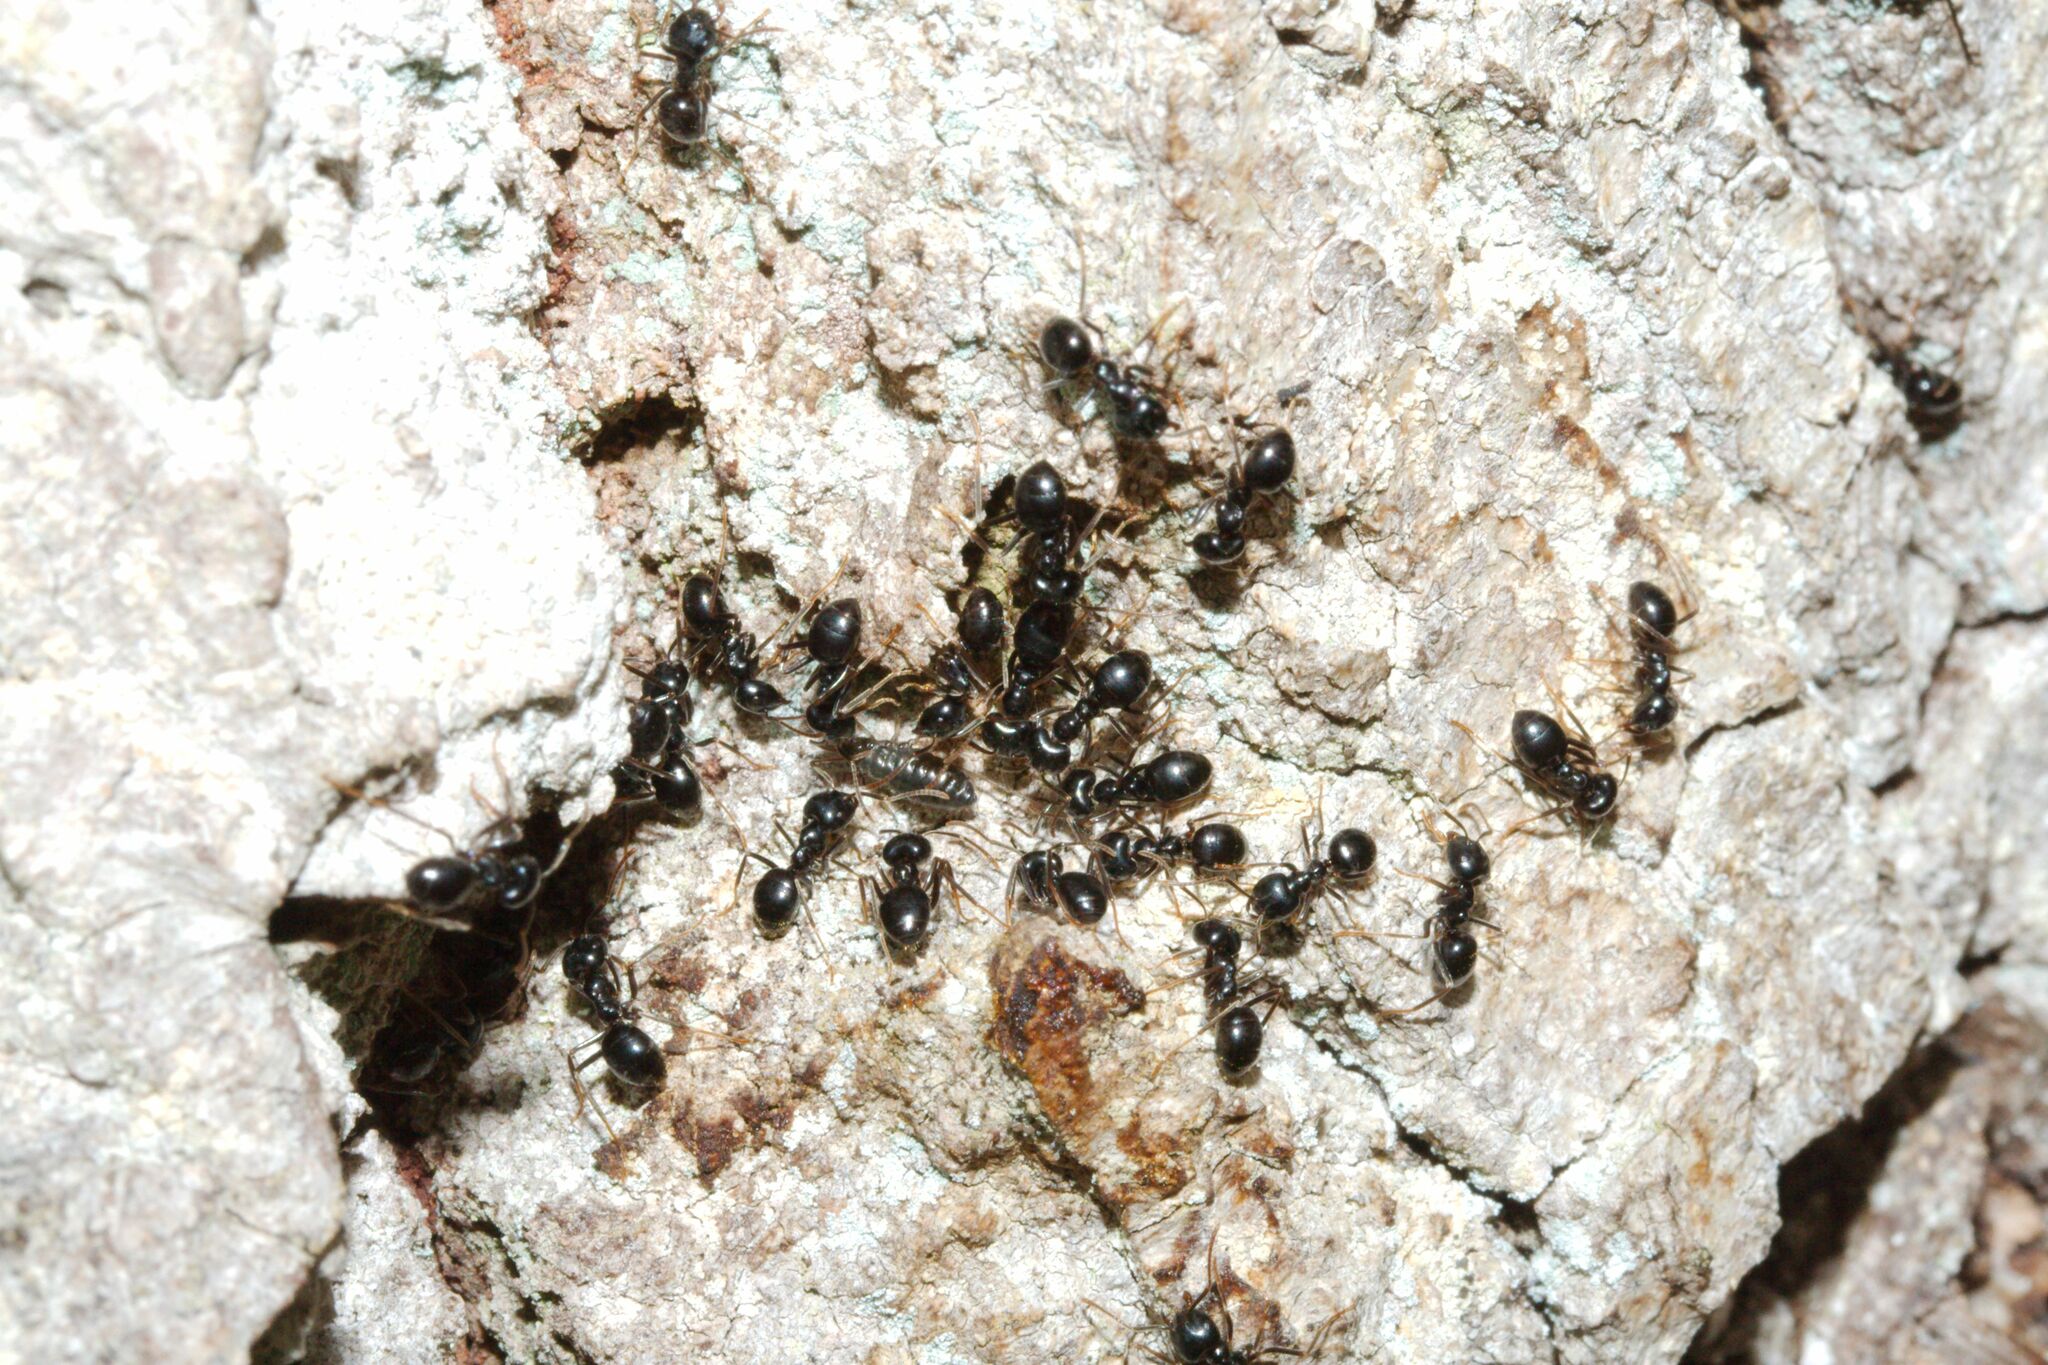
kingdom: Animalia
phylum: Arthropoda
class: Insecta
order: Hymenoptera
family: Formicidae
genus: Lasius
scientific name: Lasius fuliginosus
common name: Jet ant
